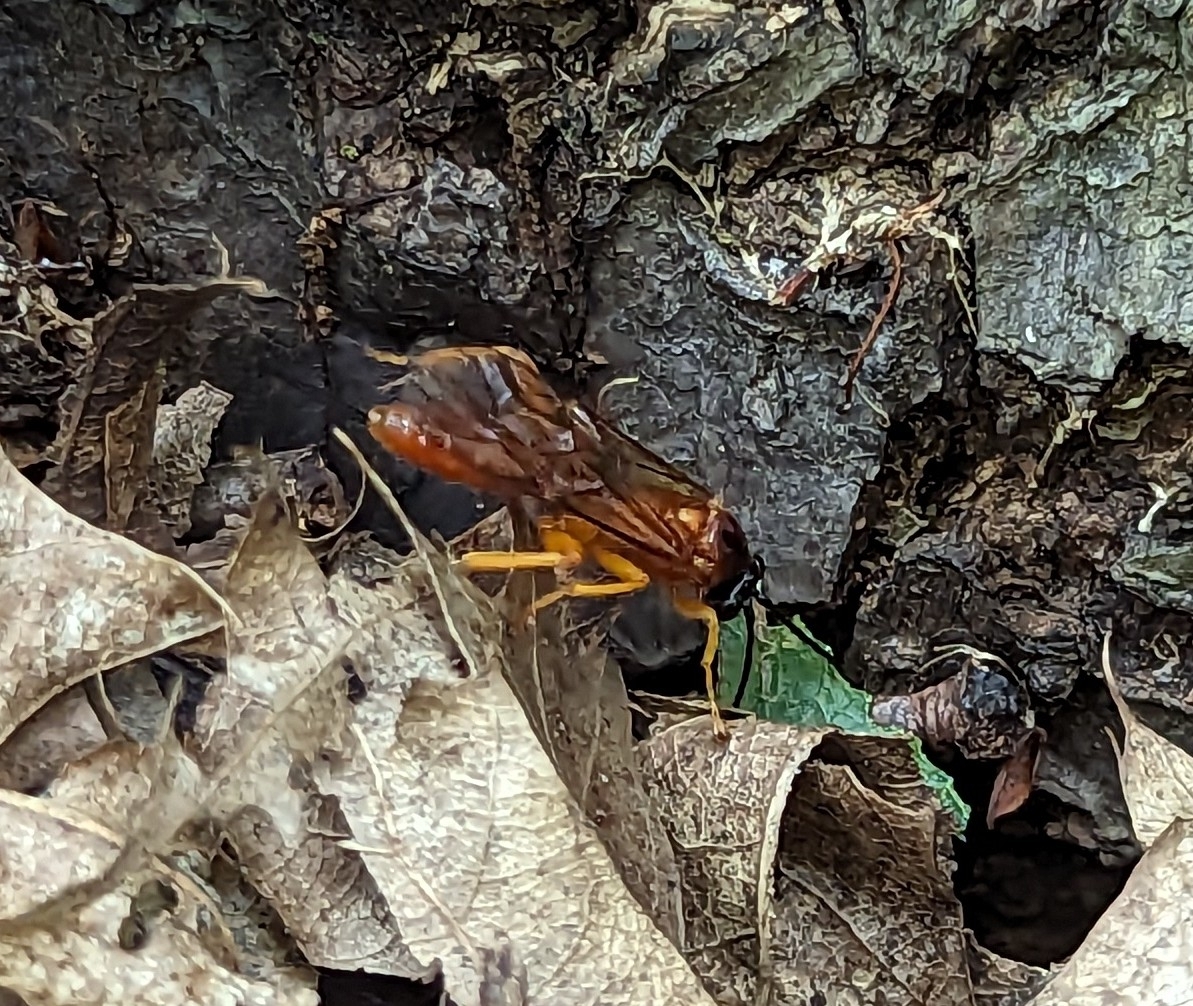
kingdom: Animalia
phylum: Arthropoda
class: Insecta
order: Hymenoptera
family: Ichneumonidae
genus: Theronia
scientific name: Theronia hilaris
